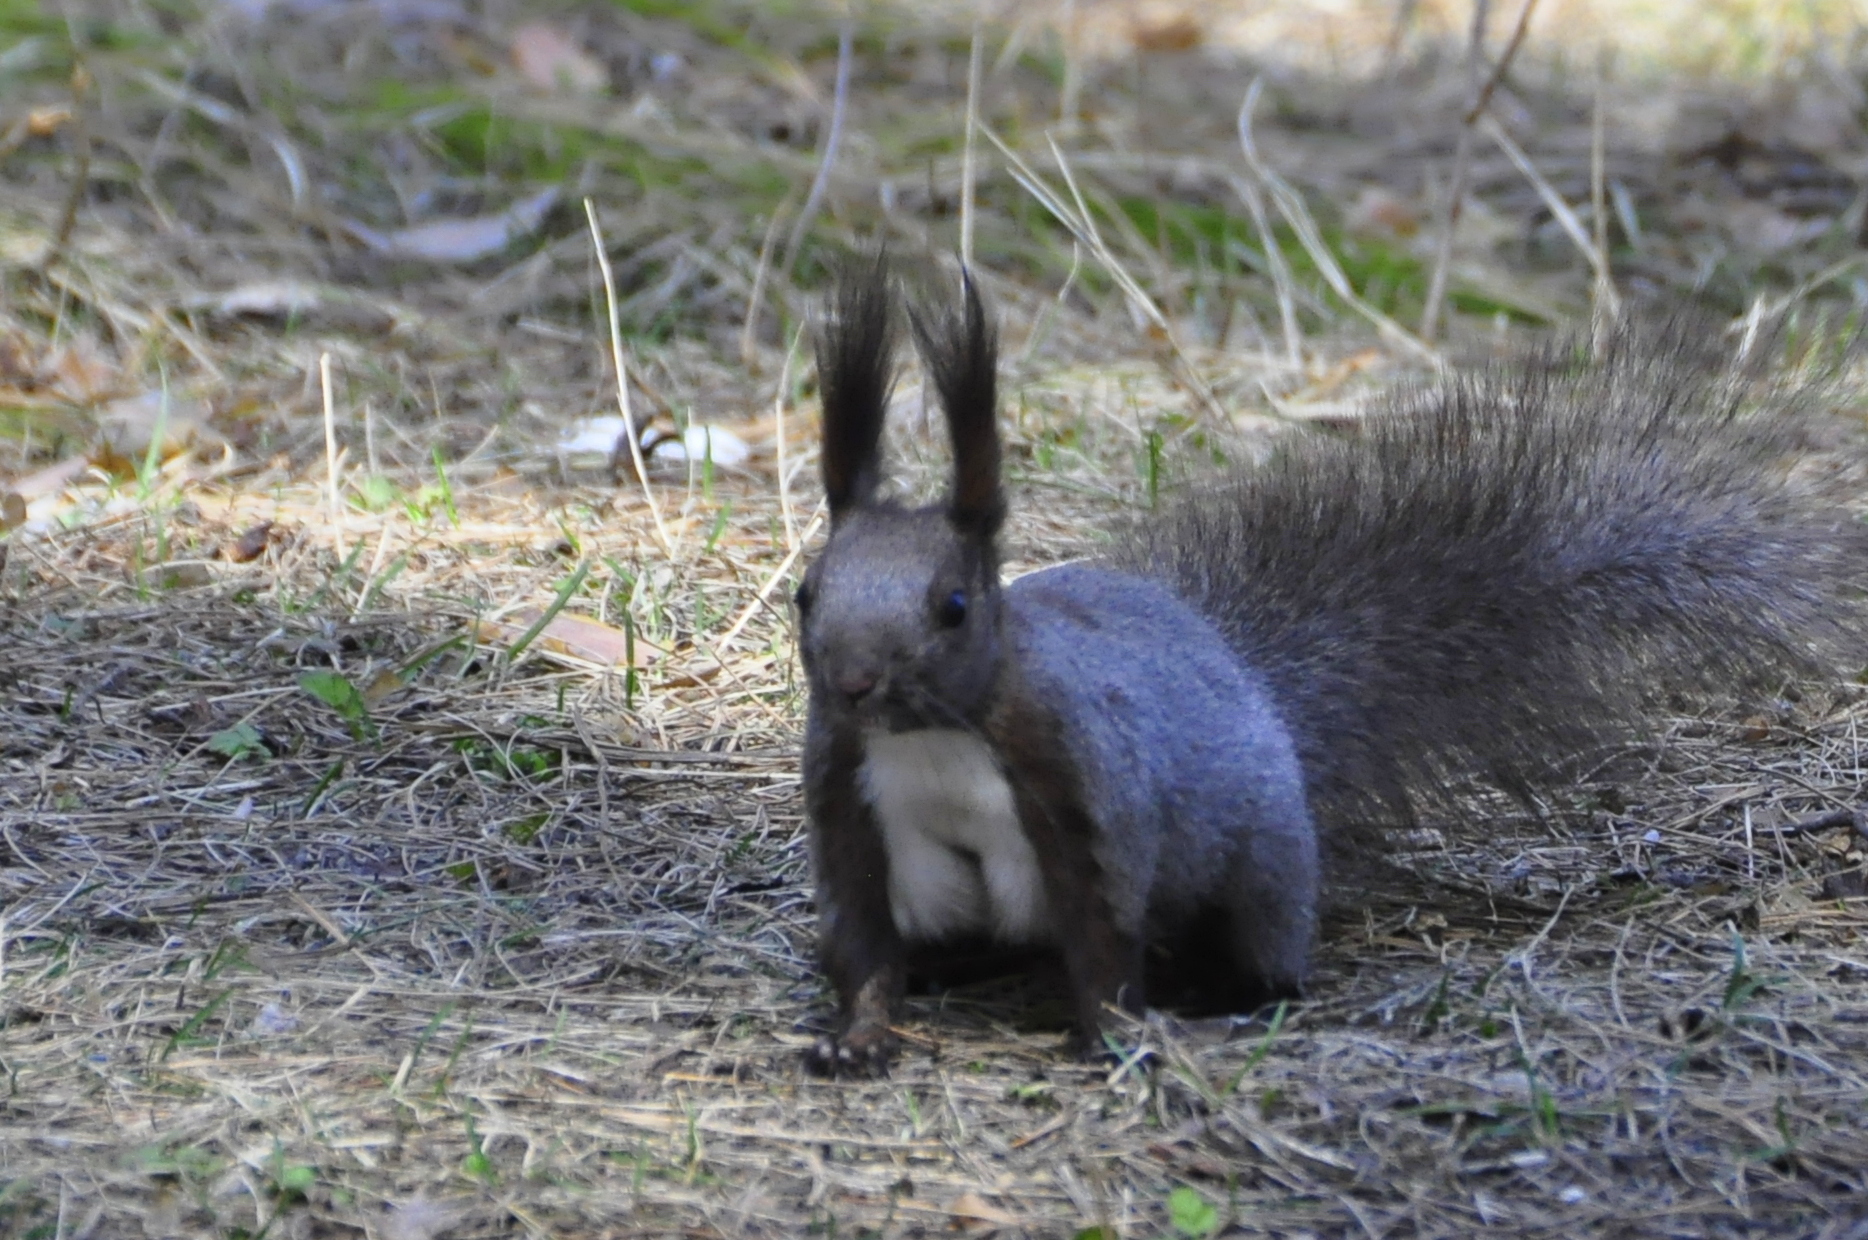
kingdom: Animalia
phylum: Chordata
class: Mammalia
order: Rodentia
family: Sciuridae
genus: Sciurus
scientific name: Sciurus vulgaris
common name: Eurasian red squirrel
